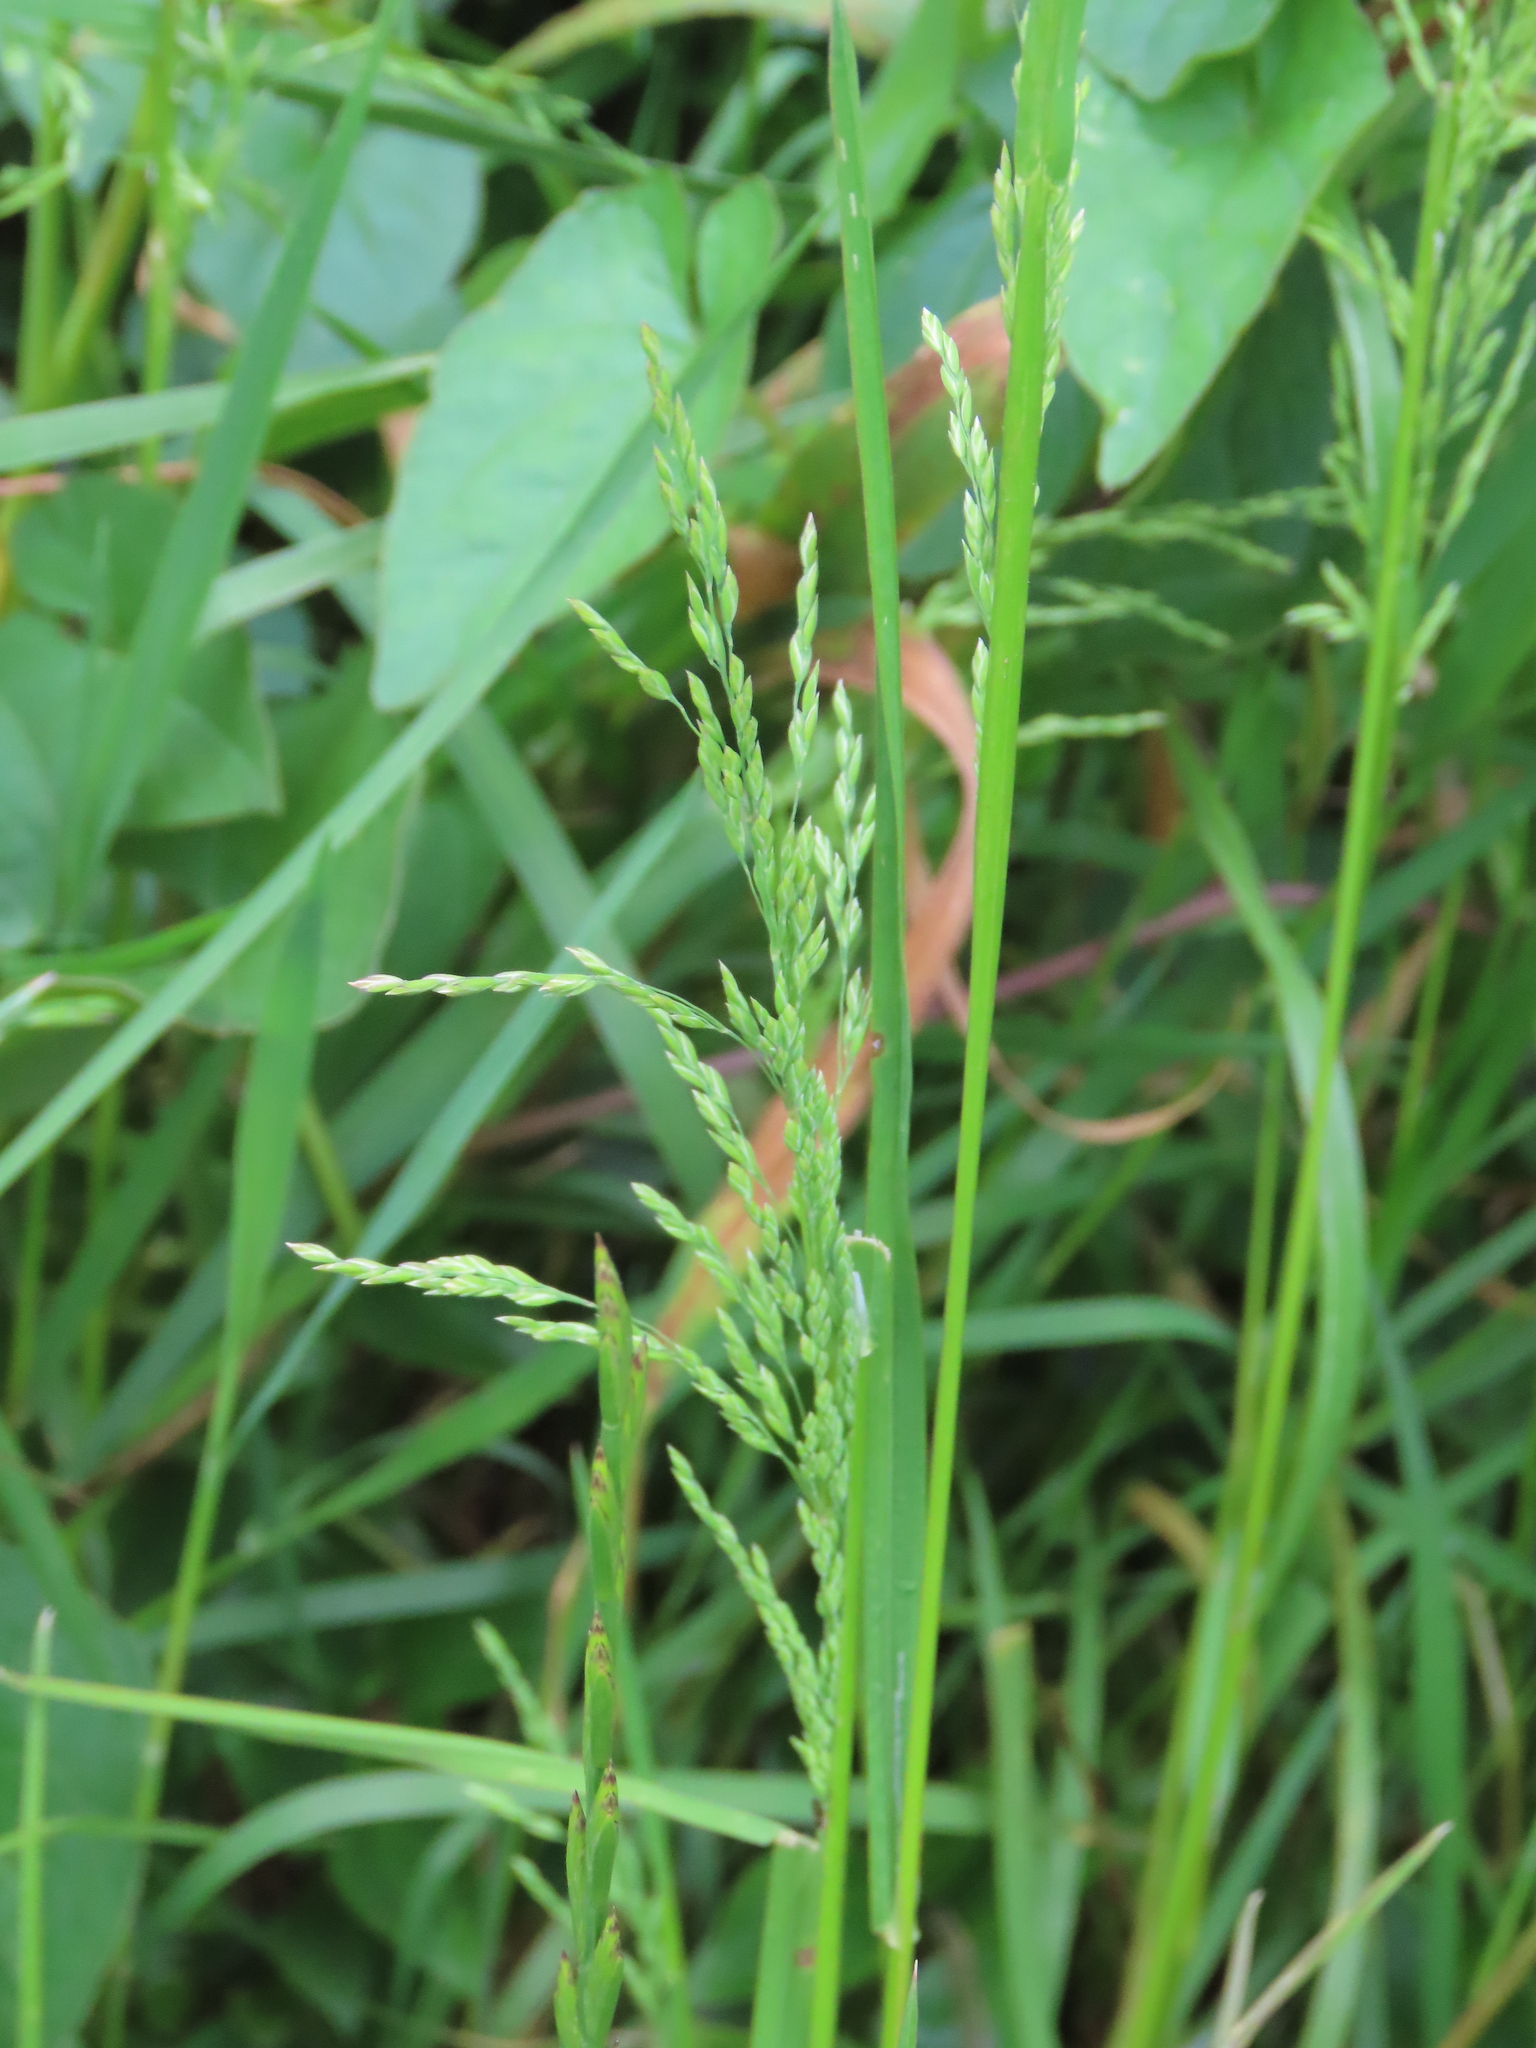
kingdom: Plantae
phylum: Tracheophyta
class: Liliopsida
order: Poales
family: Poaceae
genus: Poa
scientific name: Poa trivialis
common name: Rough bluegrass
